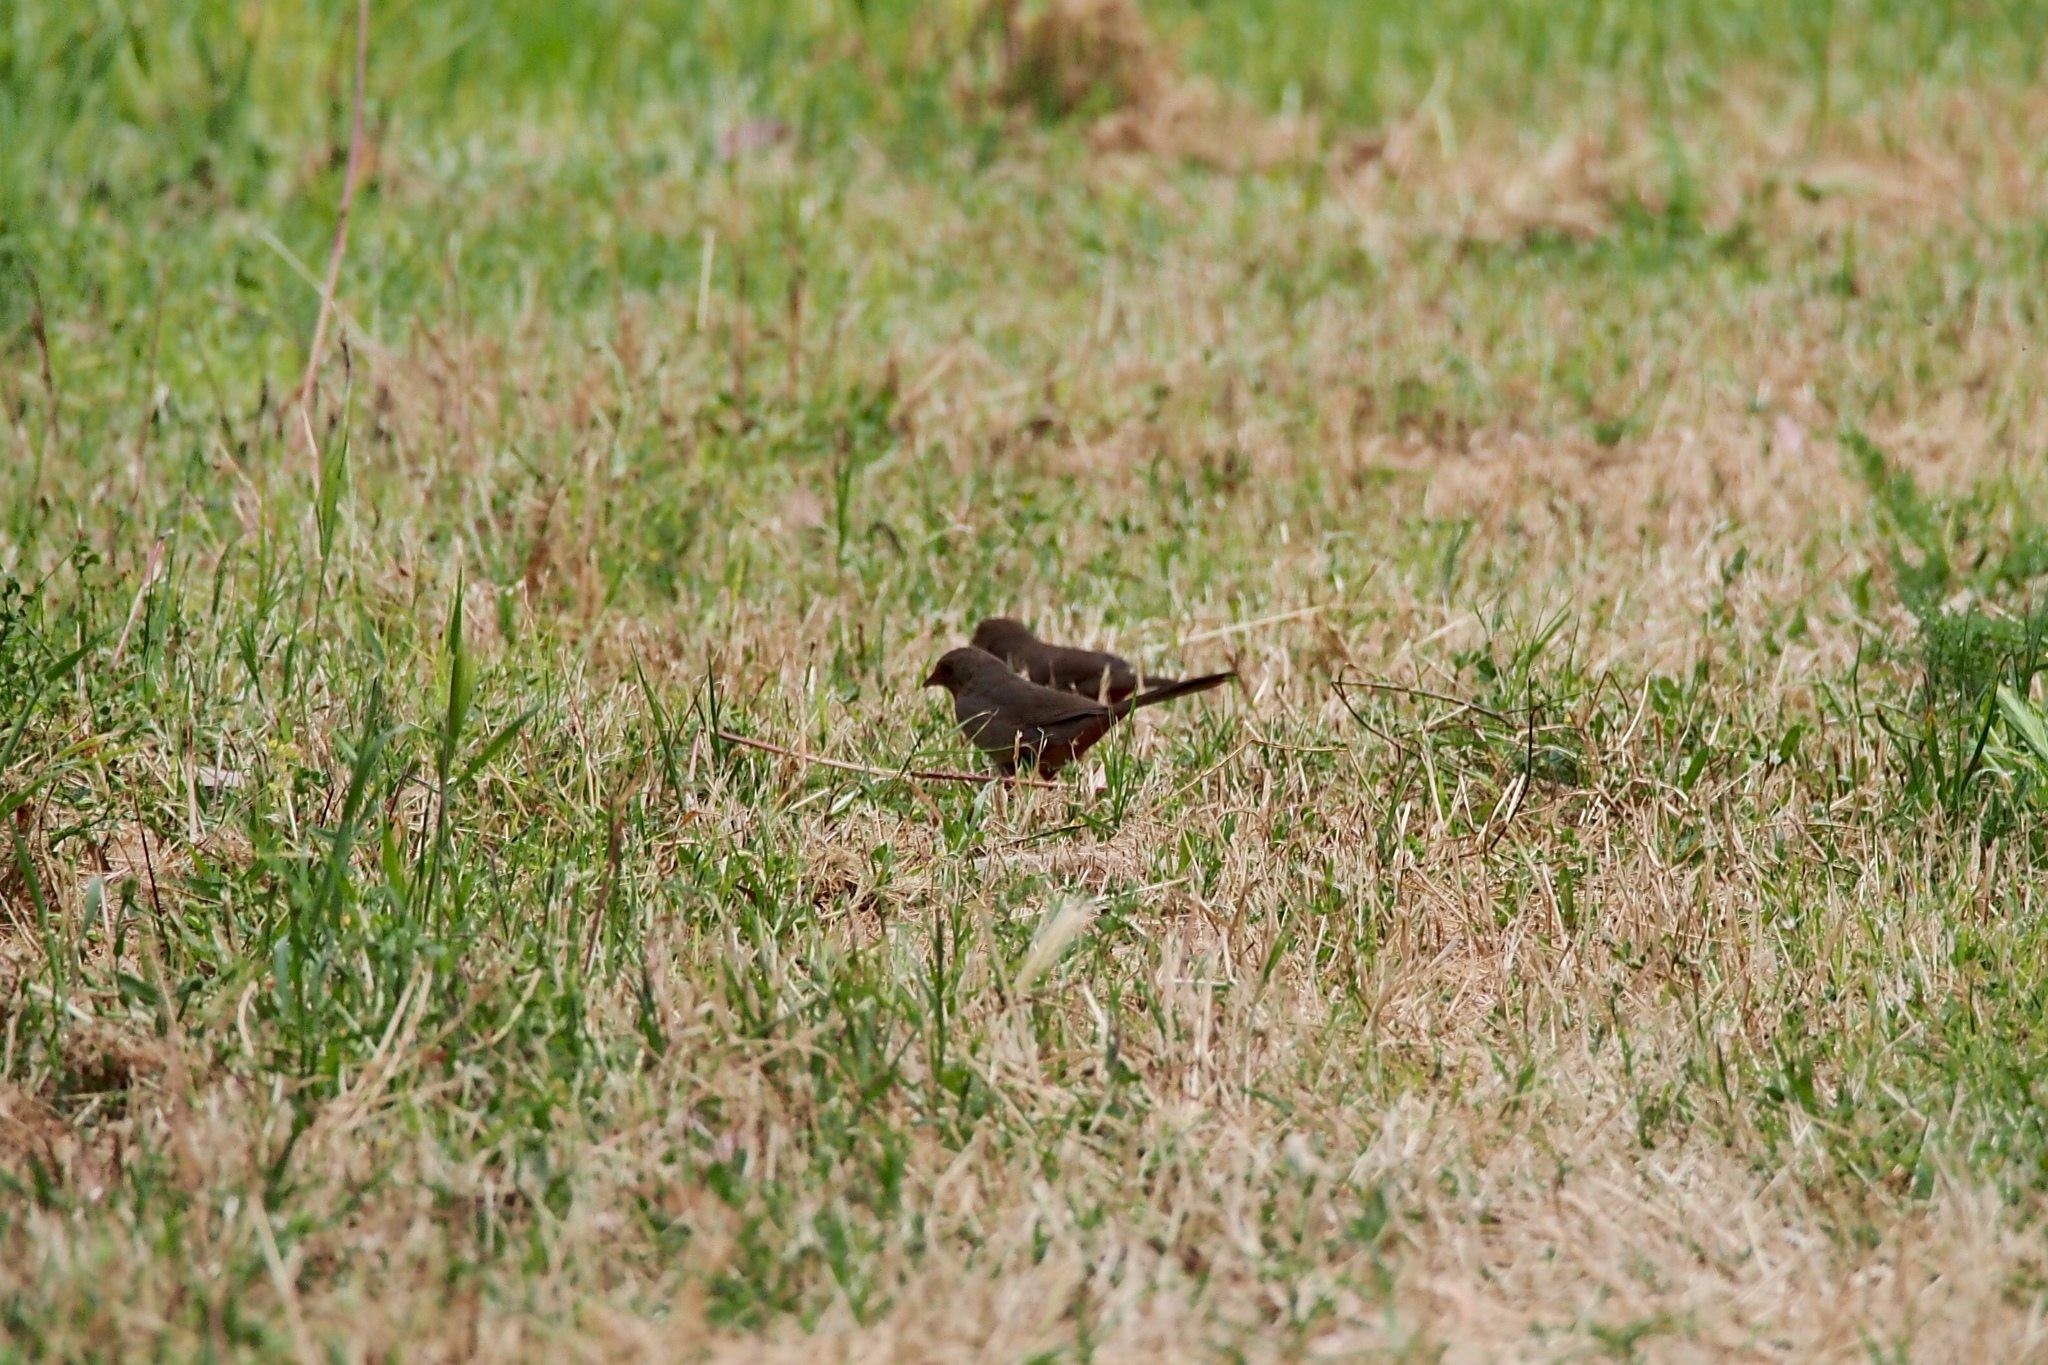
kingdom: Animalia
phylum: Chordata
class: Aves
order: Passeriformes
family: Passerellidae
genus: Melozone
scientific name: Melozone crissalis
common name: California towhee
